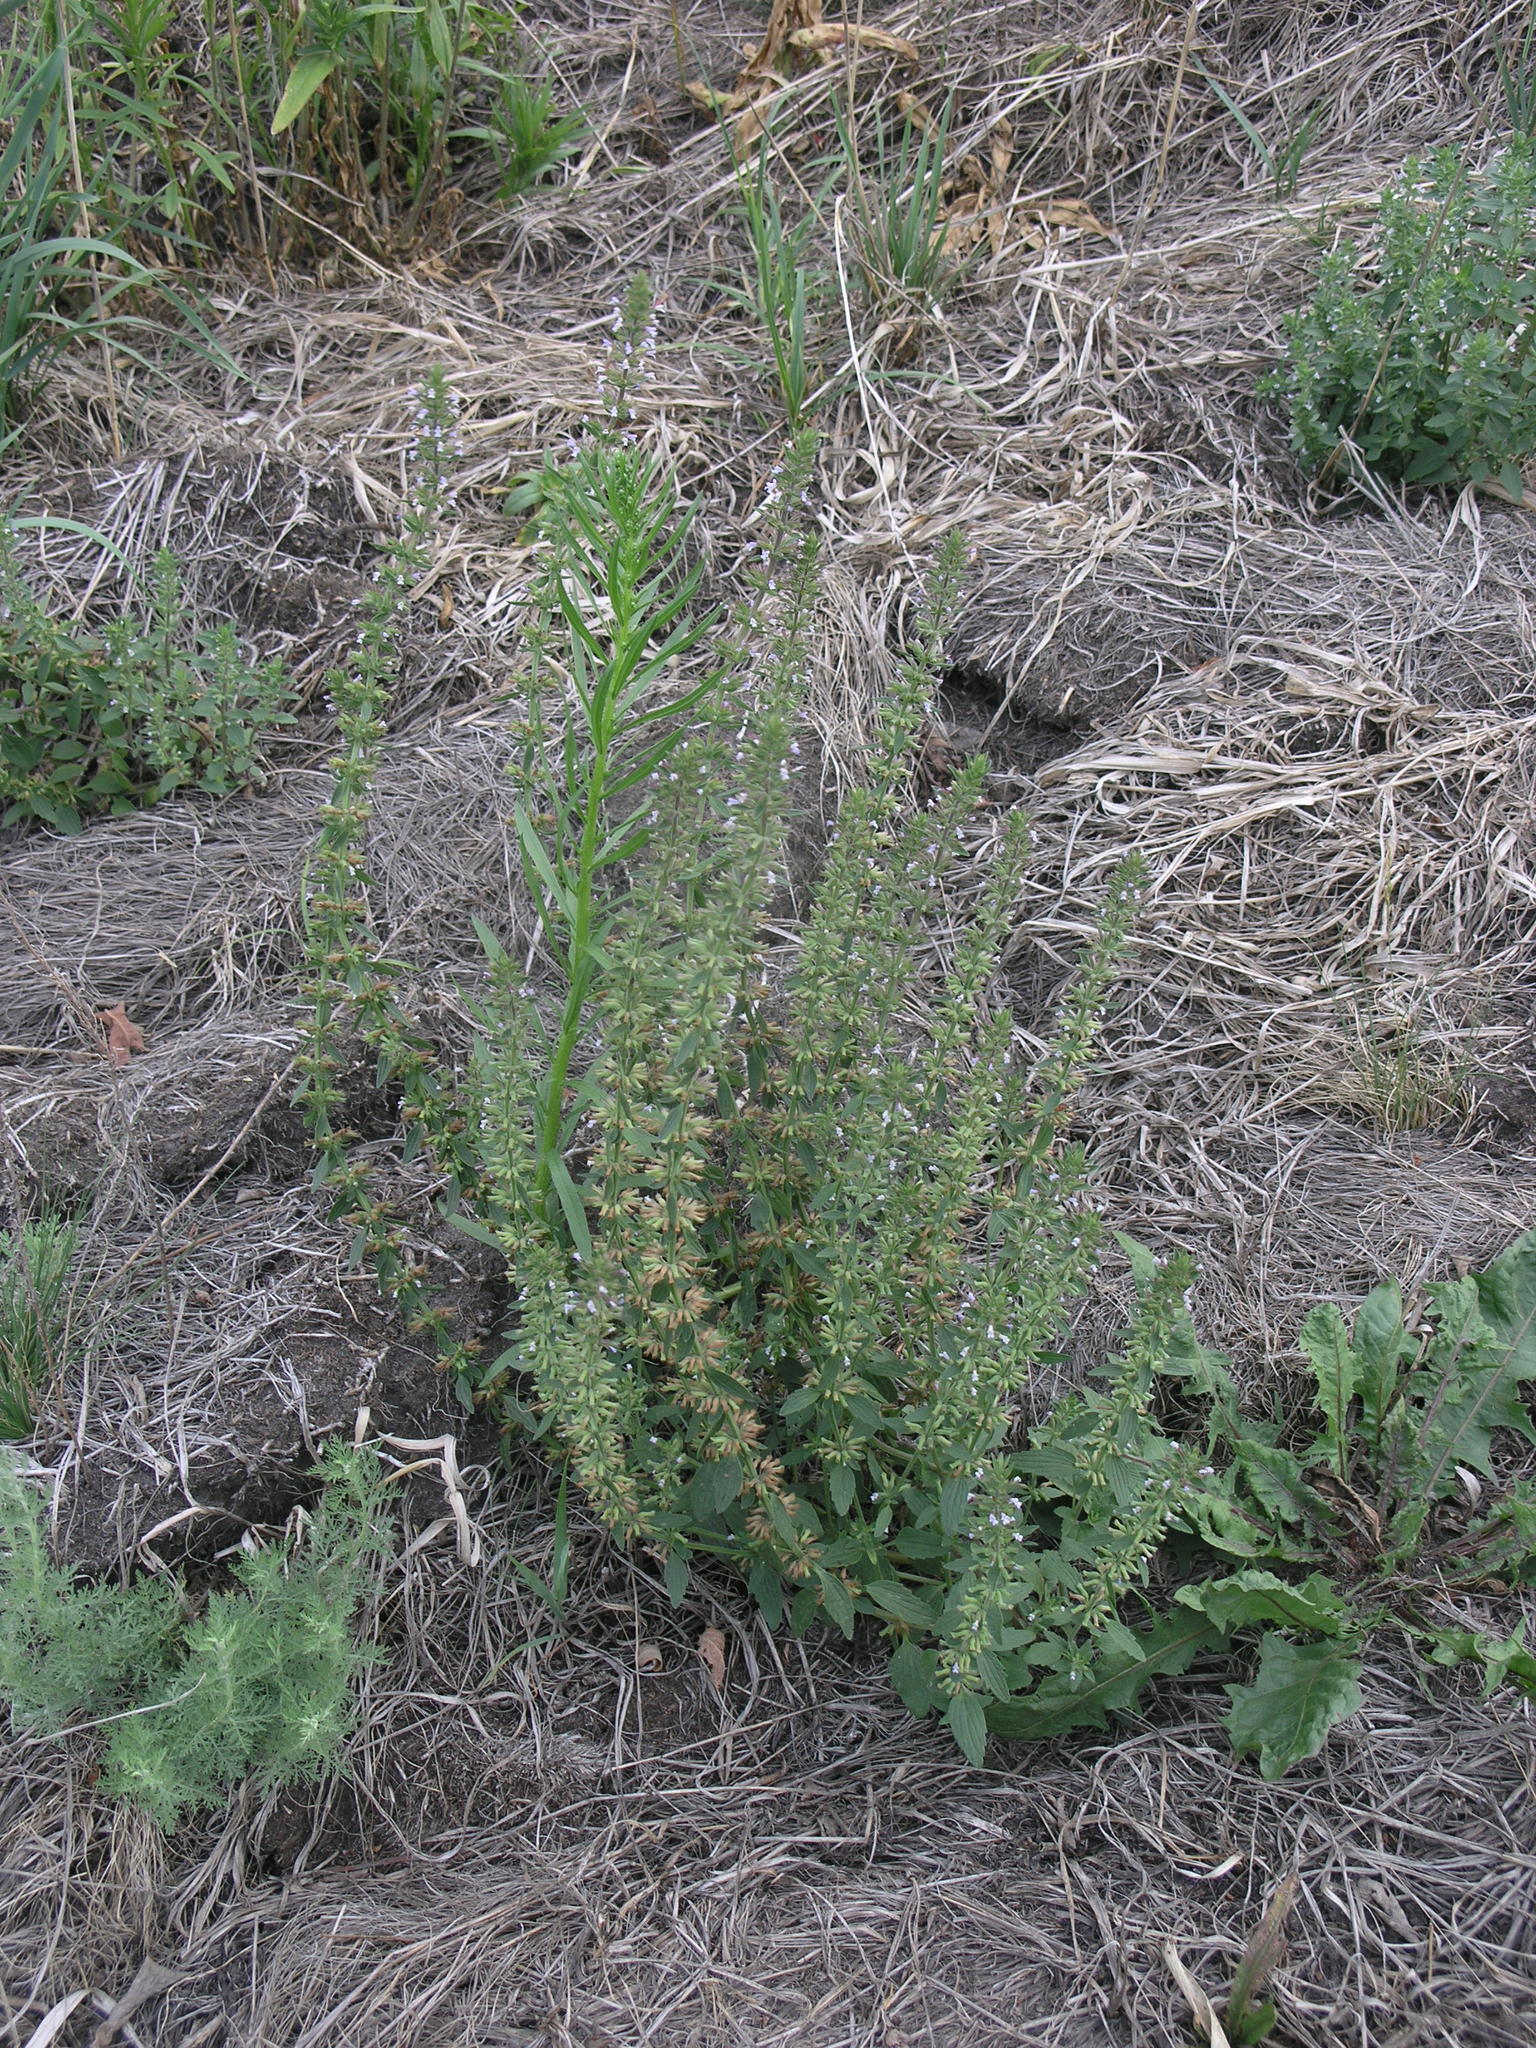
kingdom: Plantae
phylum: Tracheophyta
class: Magnoliopsida
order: Lamiales
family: Lamiaceae
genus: Dracocephalum
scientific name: Dracocephalum thymiflorum
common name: Thymeleaf dragonhead
